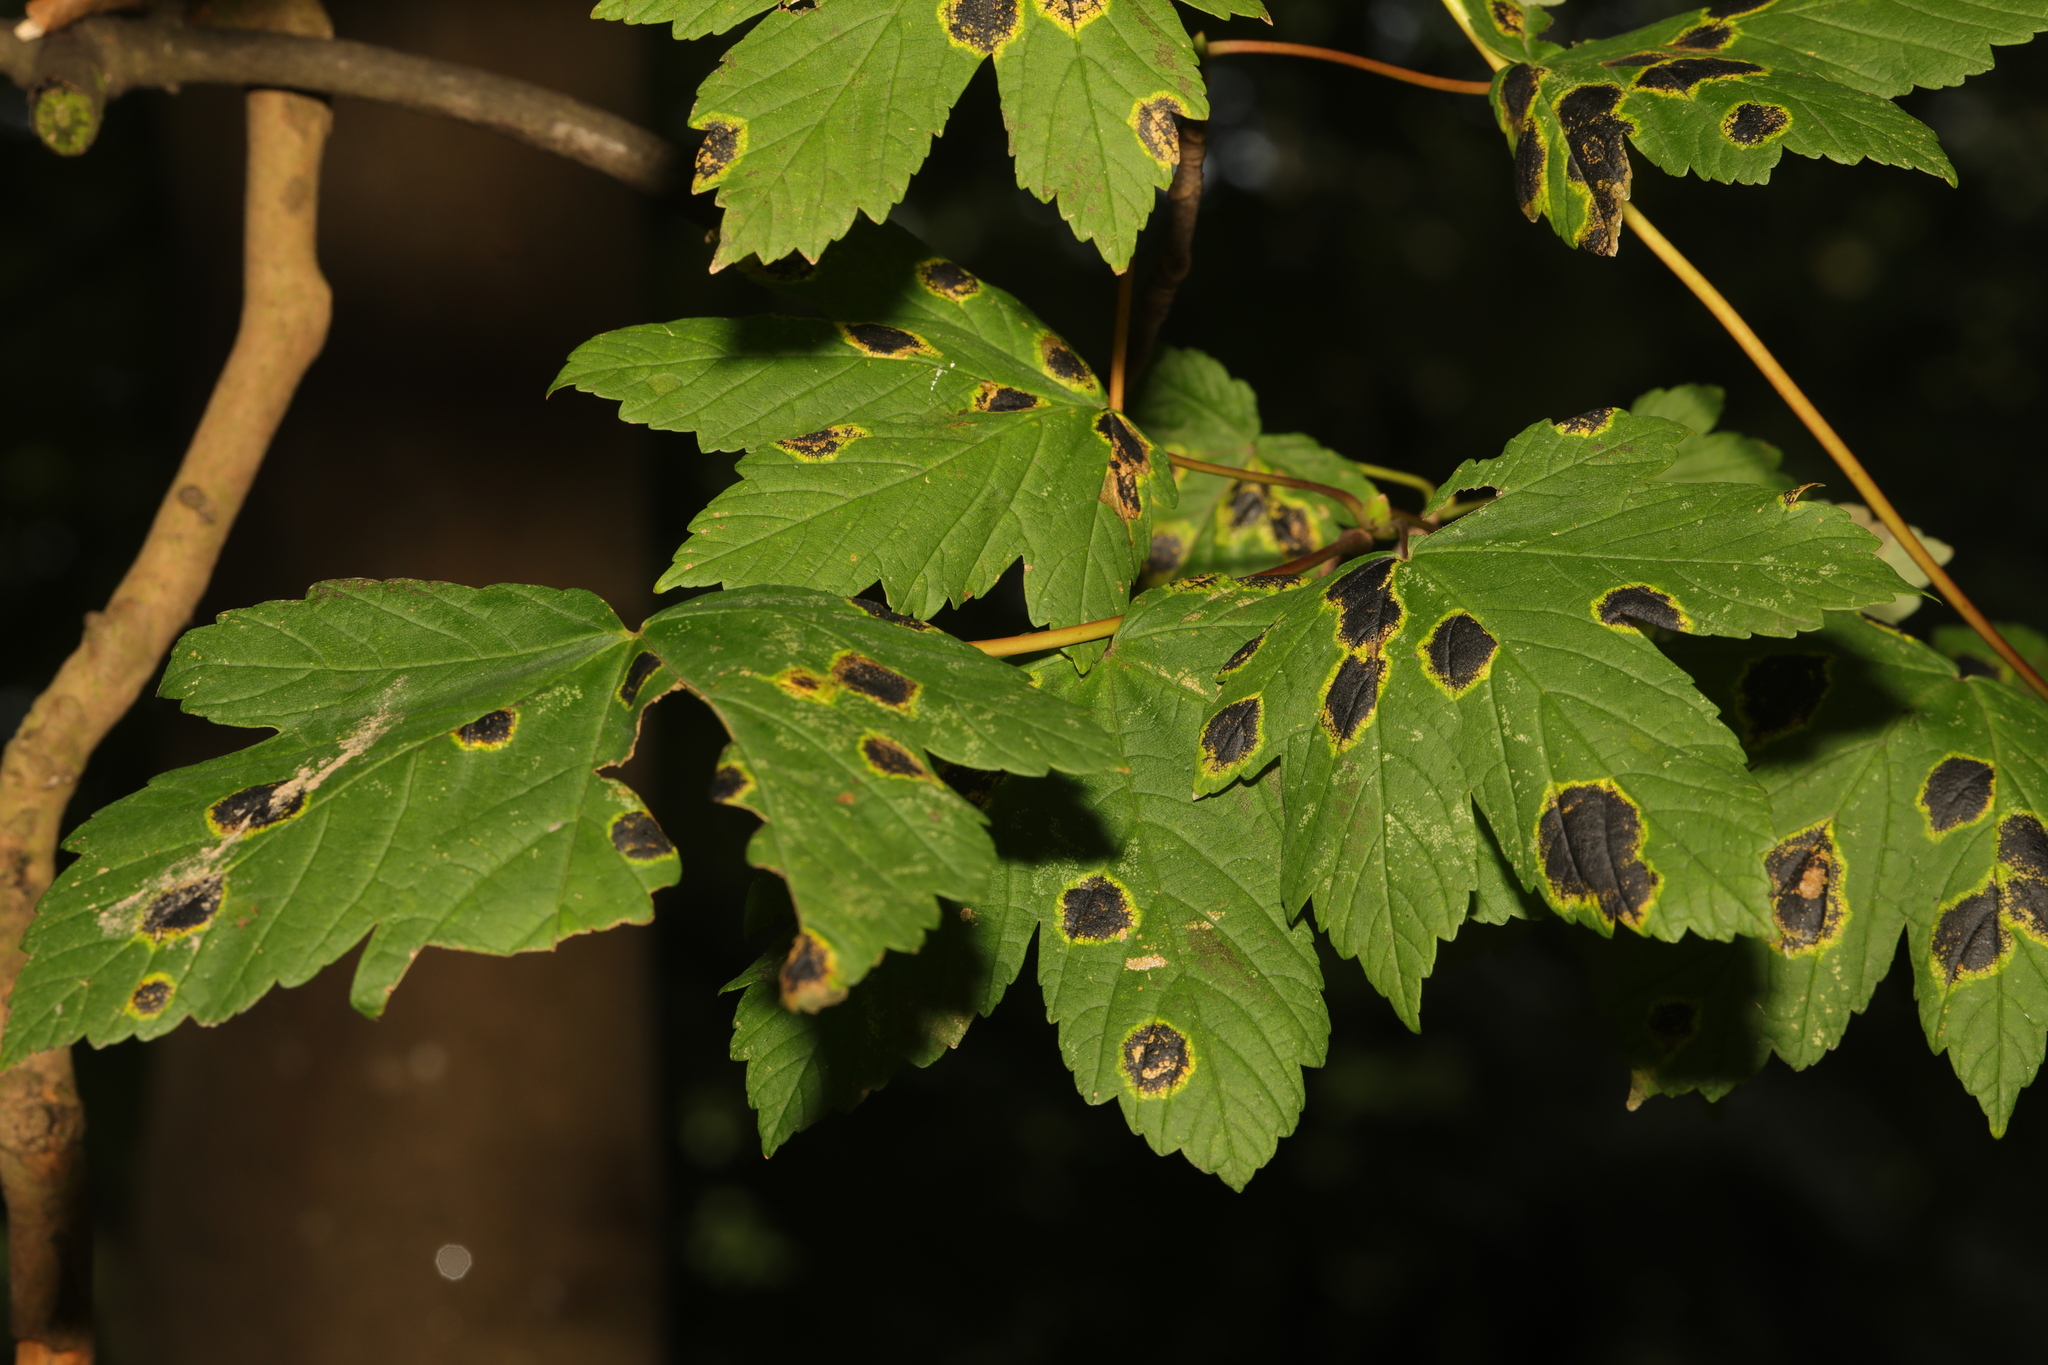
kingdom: Plantae
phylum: Tracheophyta
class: Magnoliopsida
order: Sapindales
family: Sapindaceae
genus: Acer
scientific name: Acer pseudoplatanus
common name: Sycamore
